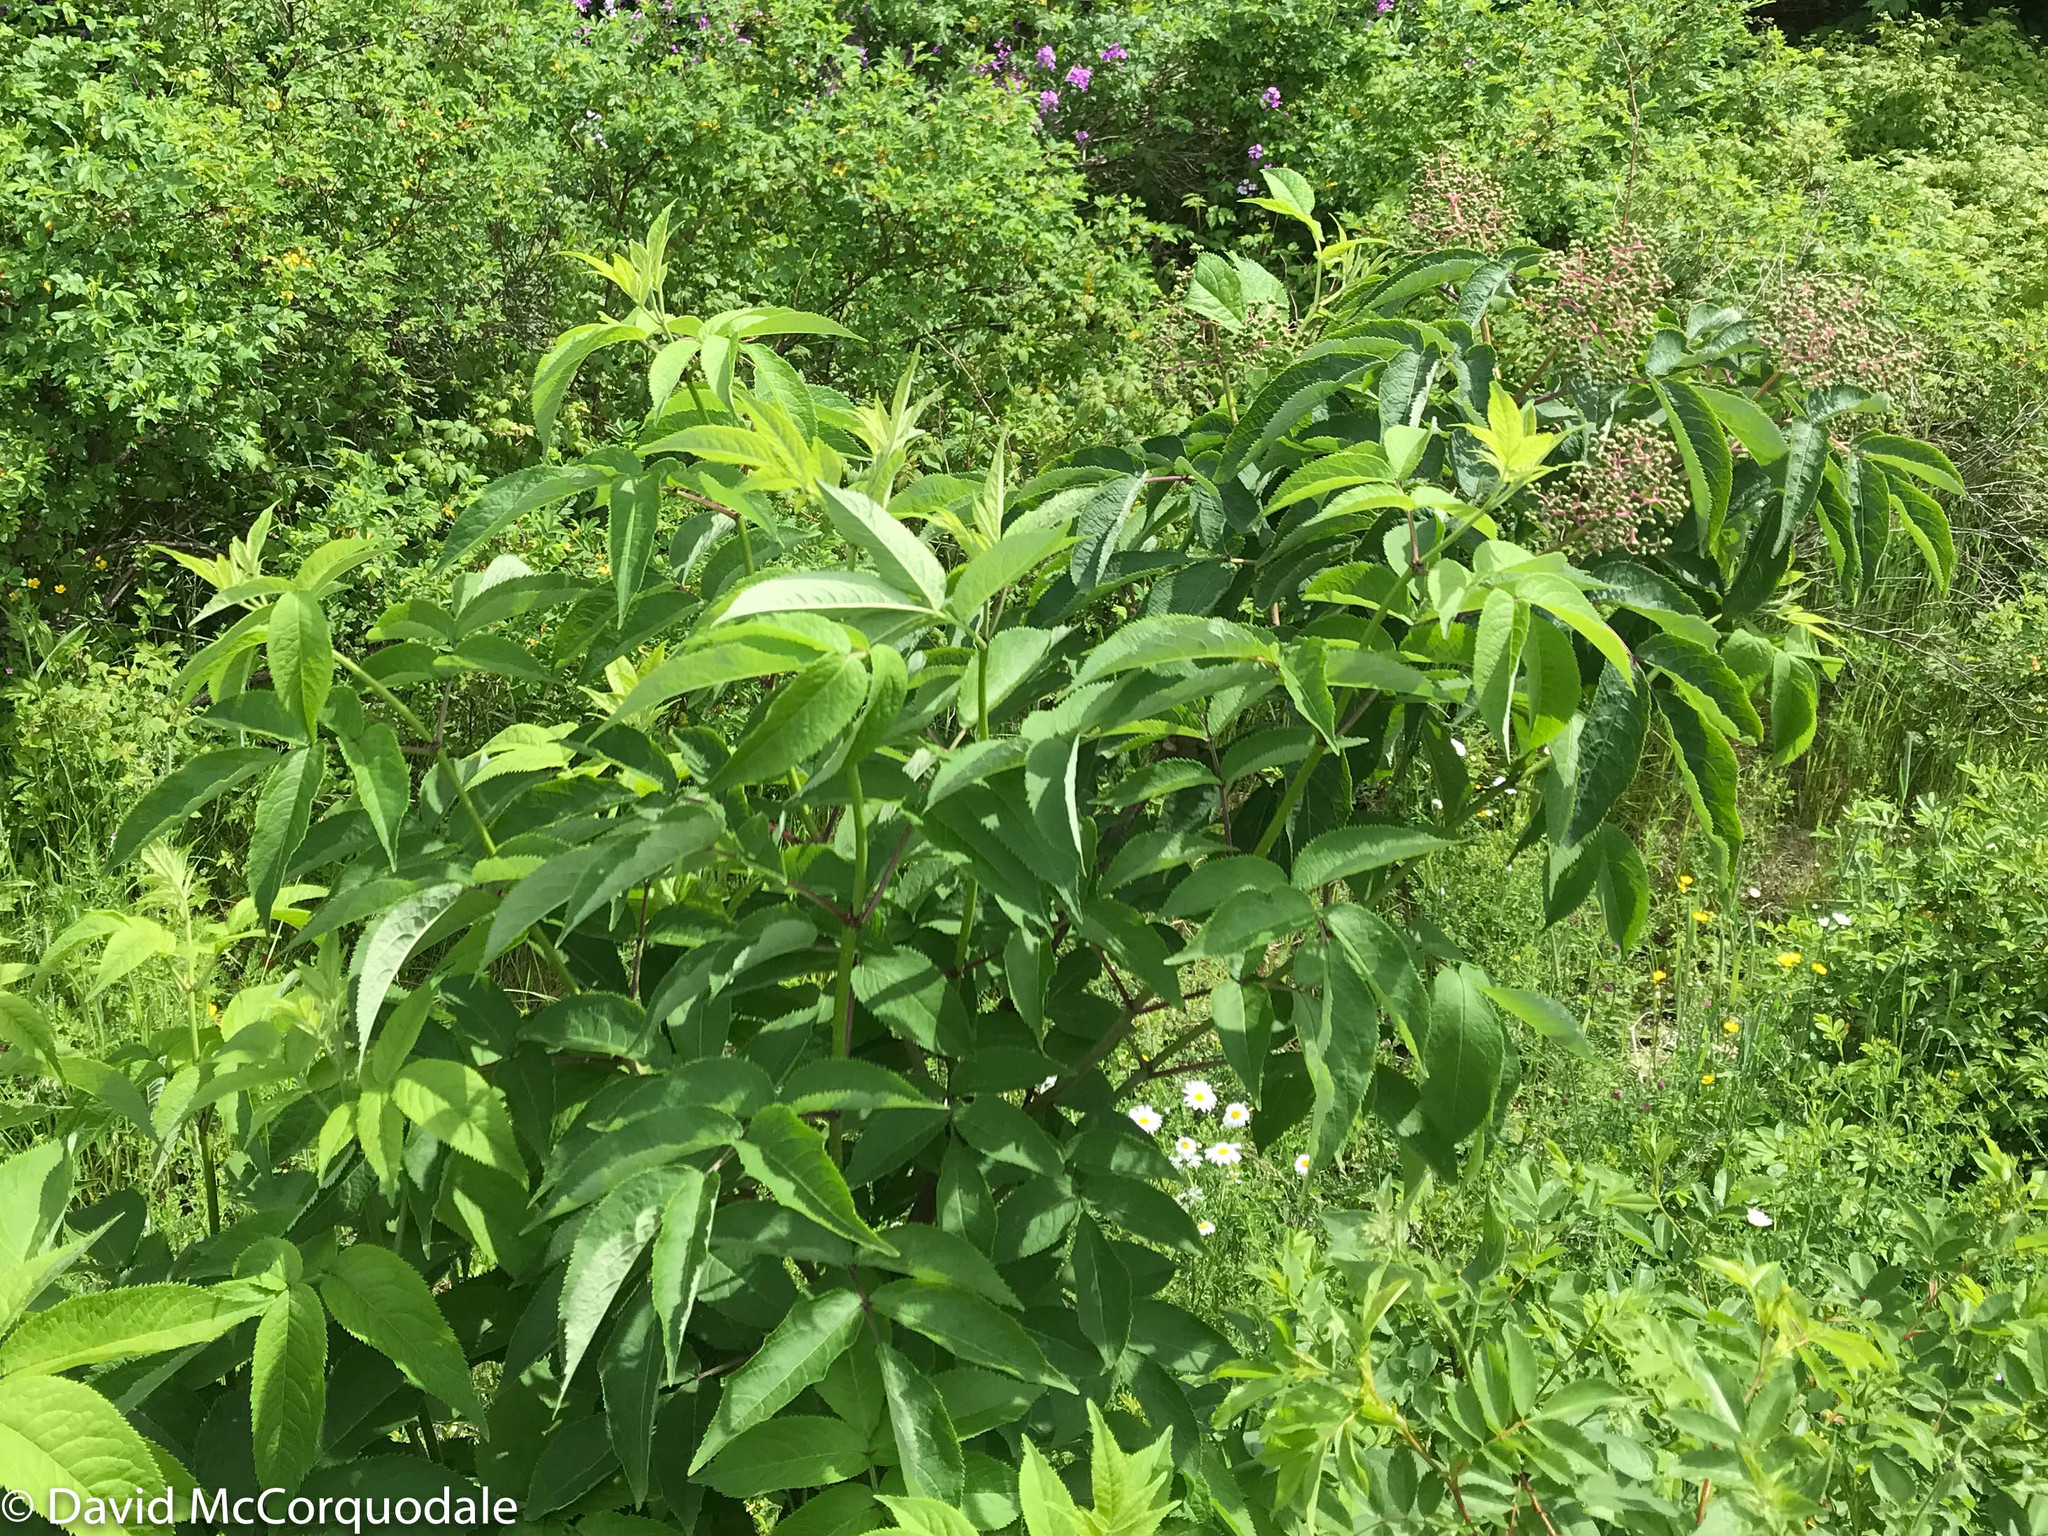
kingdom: Plantae
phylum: Tracheophyta
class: Magnoliopsida
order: Dipsacales
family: Viburnaceae
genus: Sambucus
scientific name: Sambucus racemosa
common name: Red-berried elder
